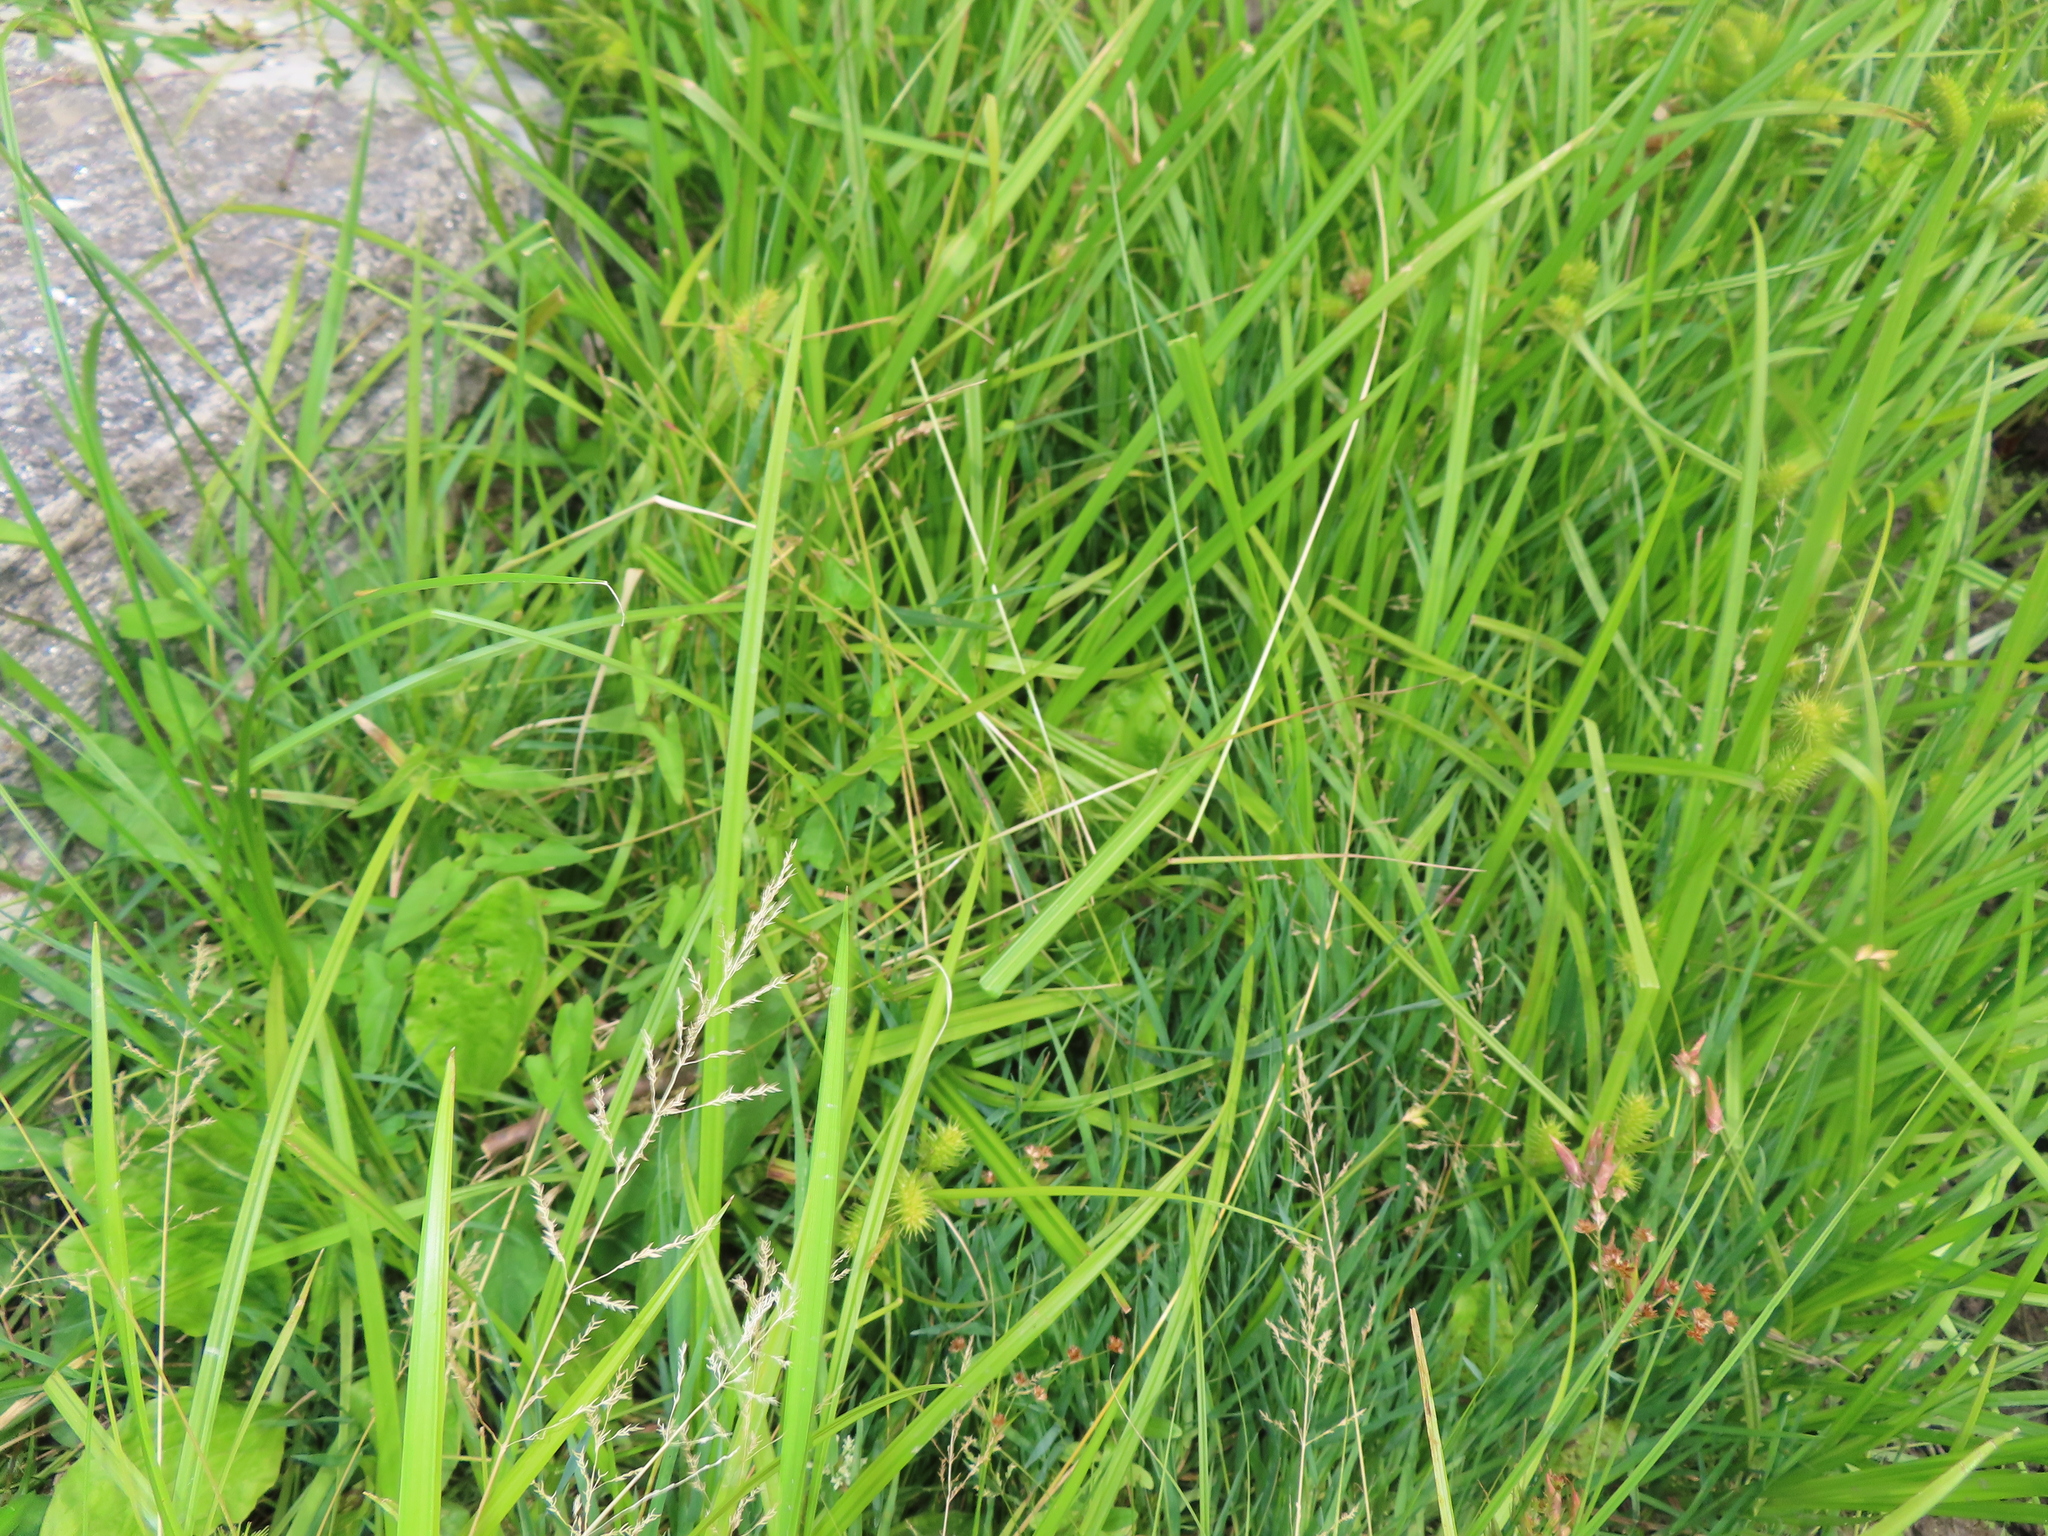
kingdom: Plantae
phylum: Tracheophyta
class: Liliopsida
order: Poales
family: Cyperaceae
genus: Carex
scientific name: Carex lurida
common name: Sallow sedge
